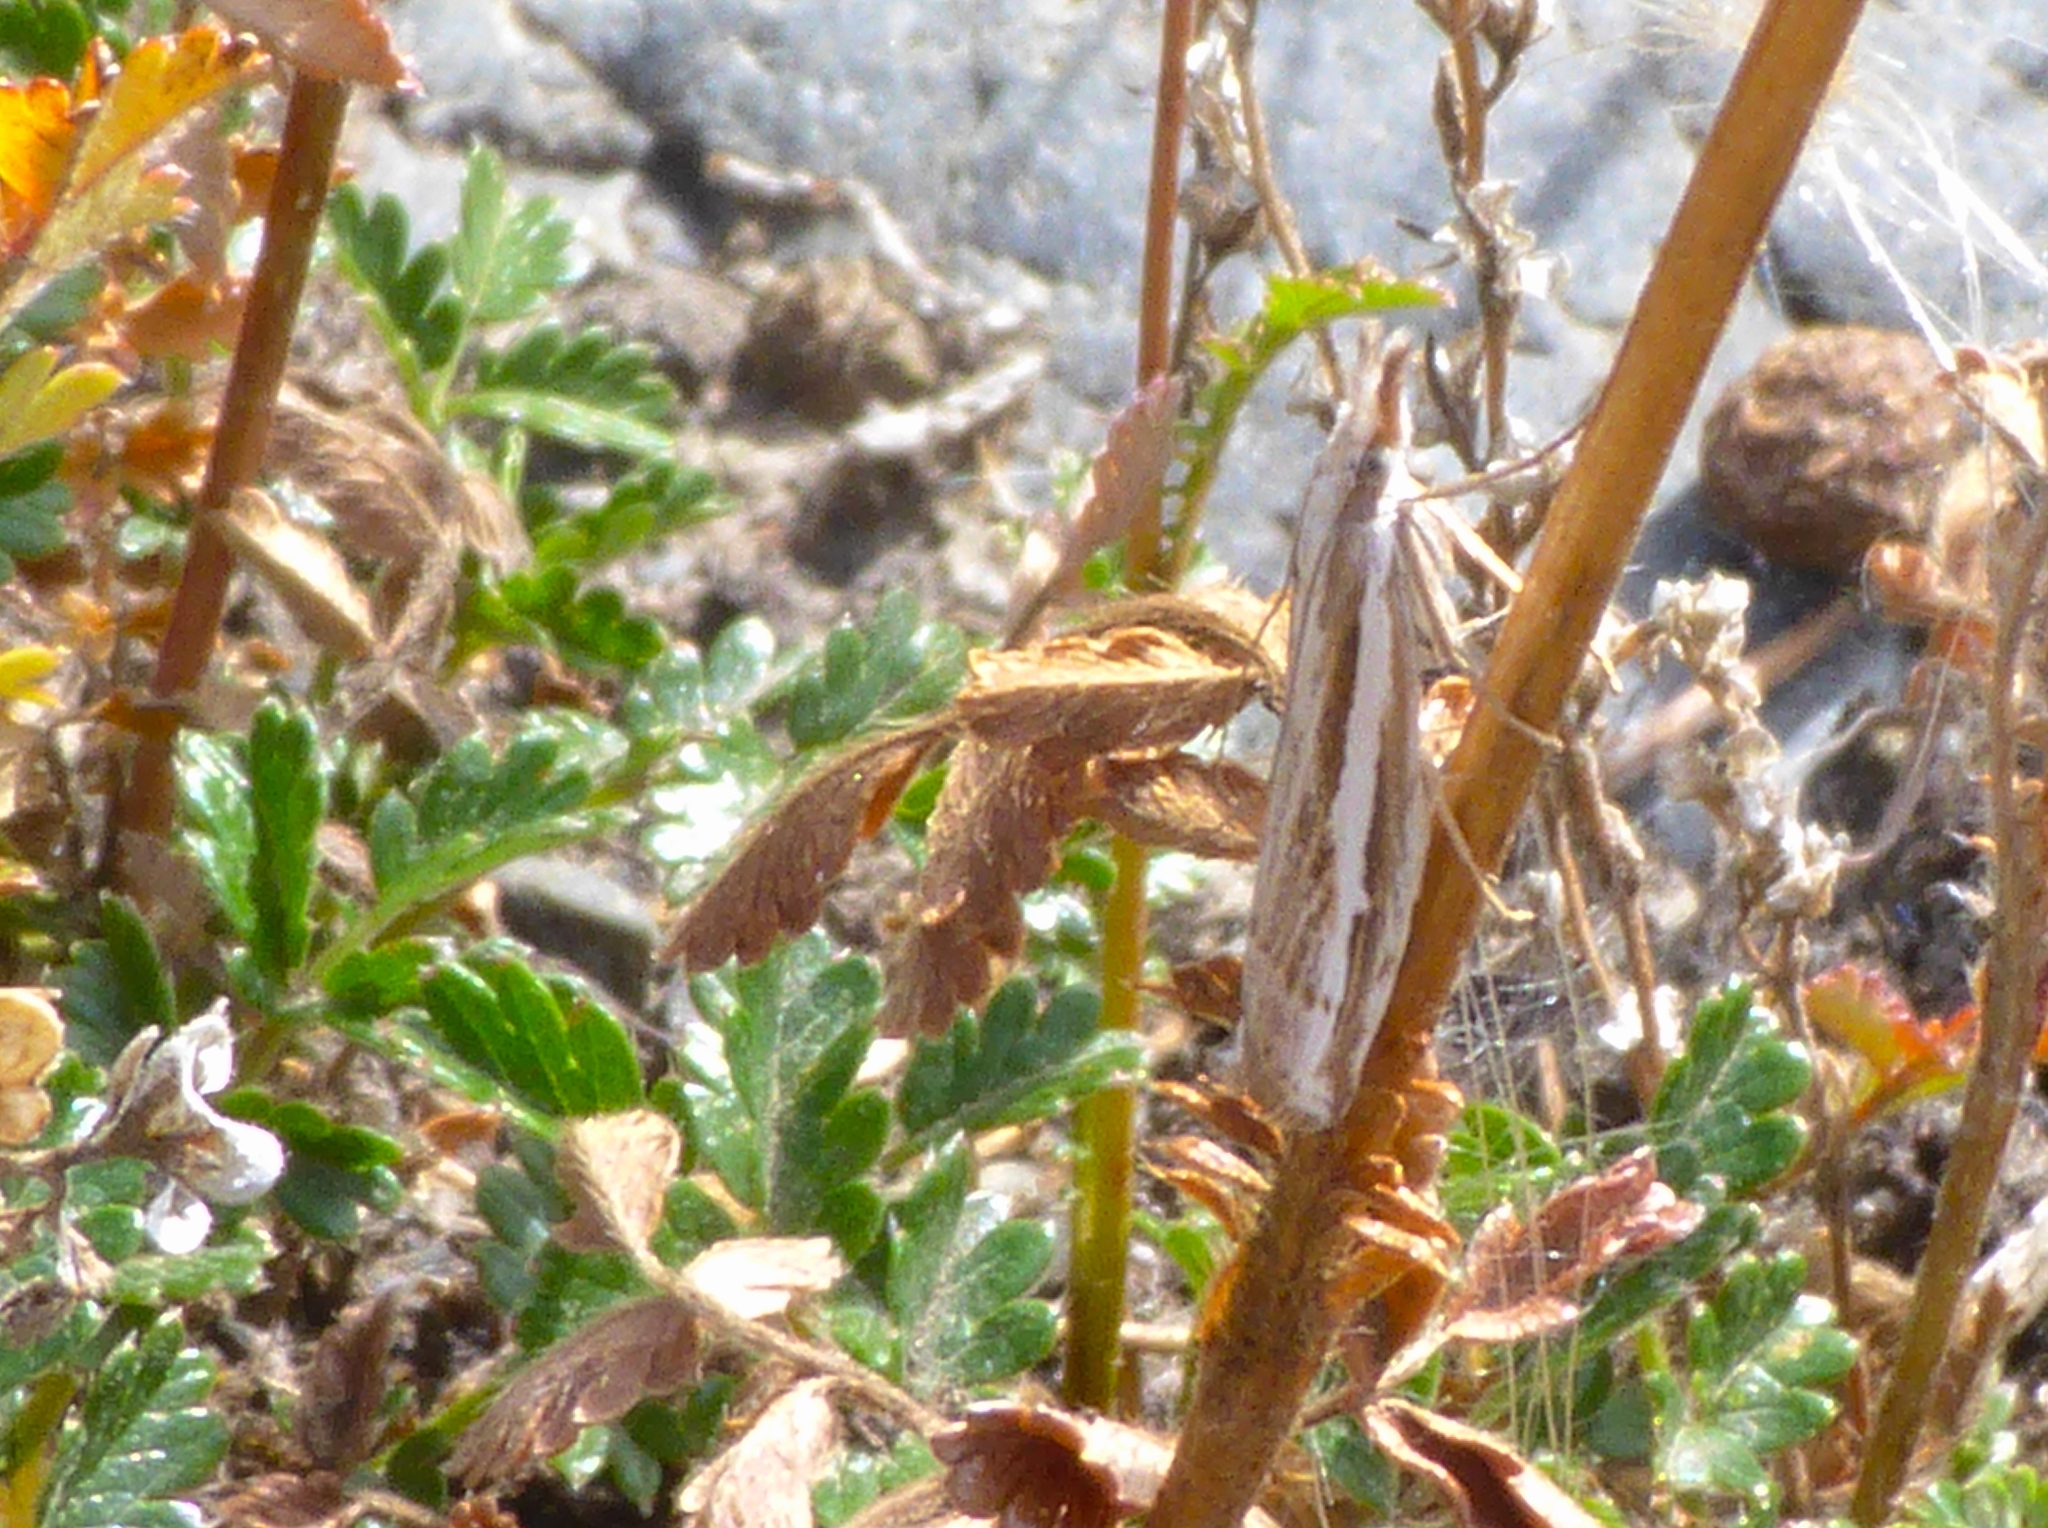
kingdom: Animalia
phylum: Arthropoda
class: Insecta
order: Lepidoptera
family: Crambidae
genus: Orocrambus
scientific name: Orocrambus vittellus
